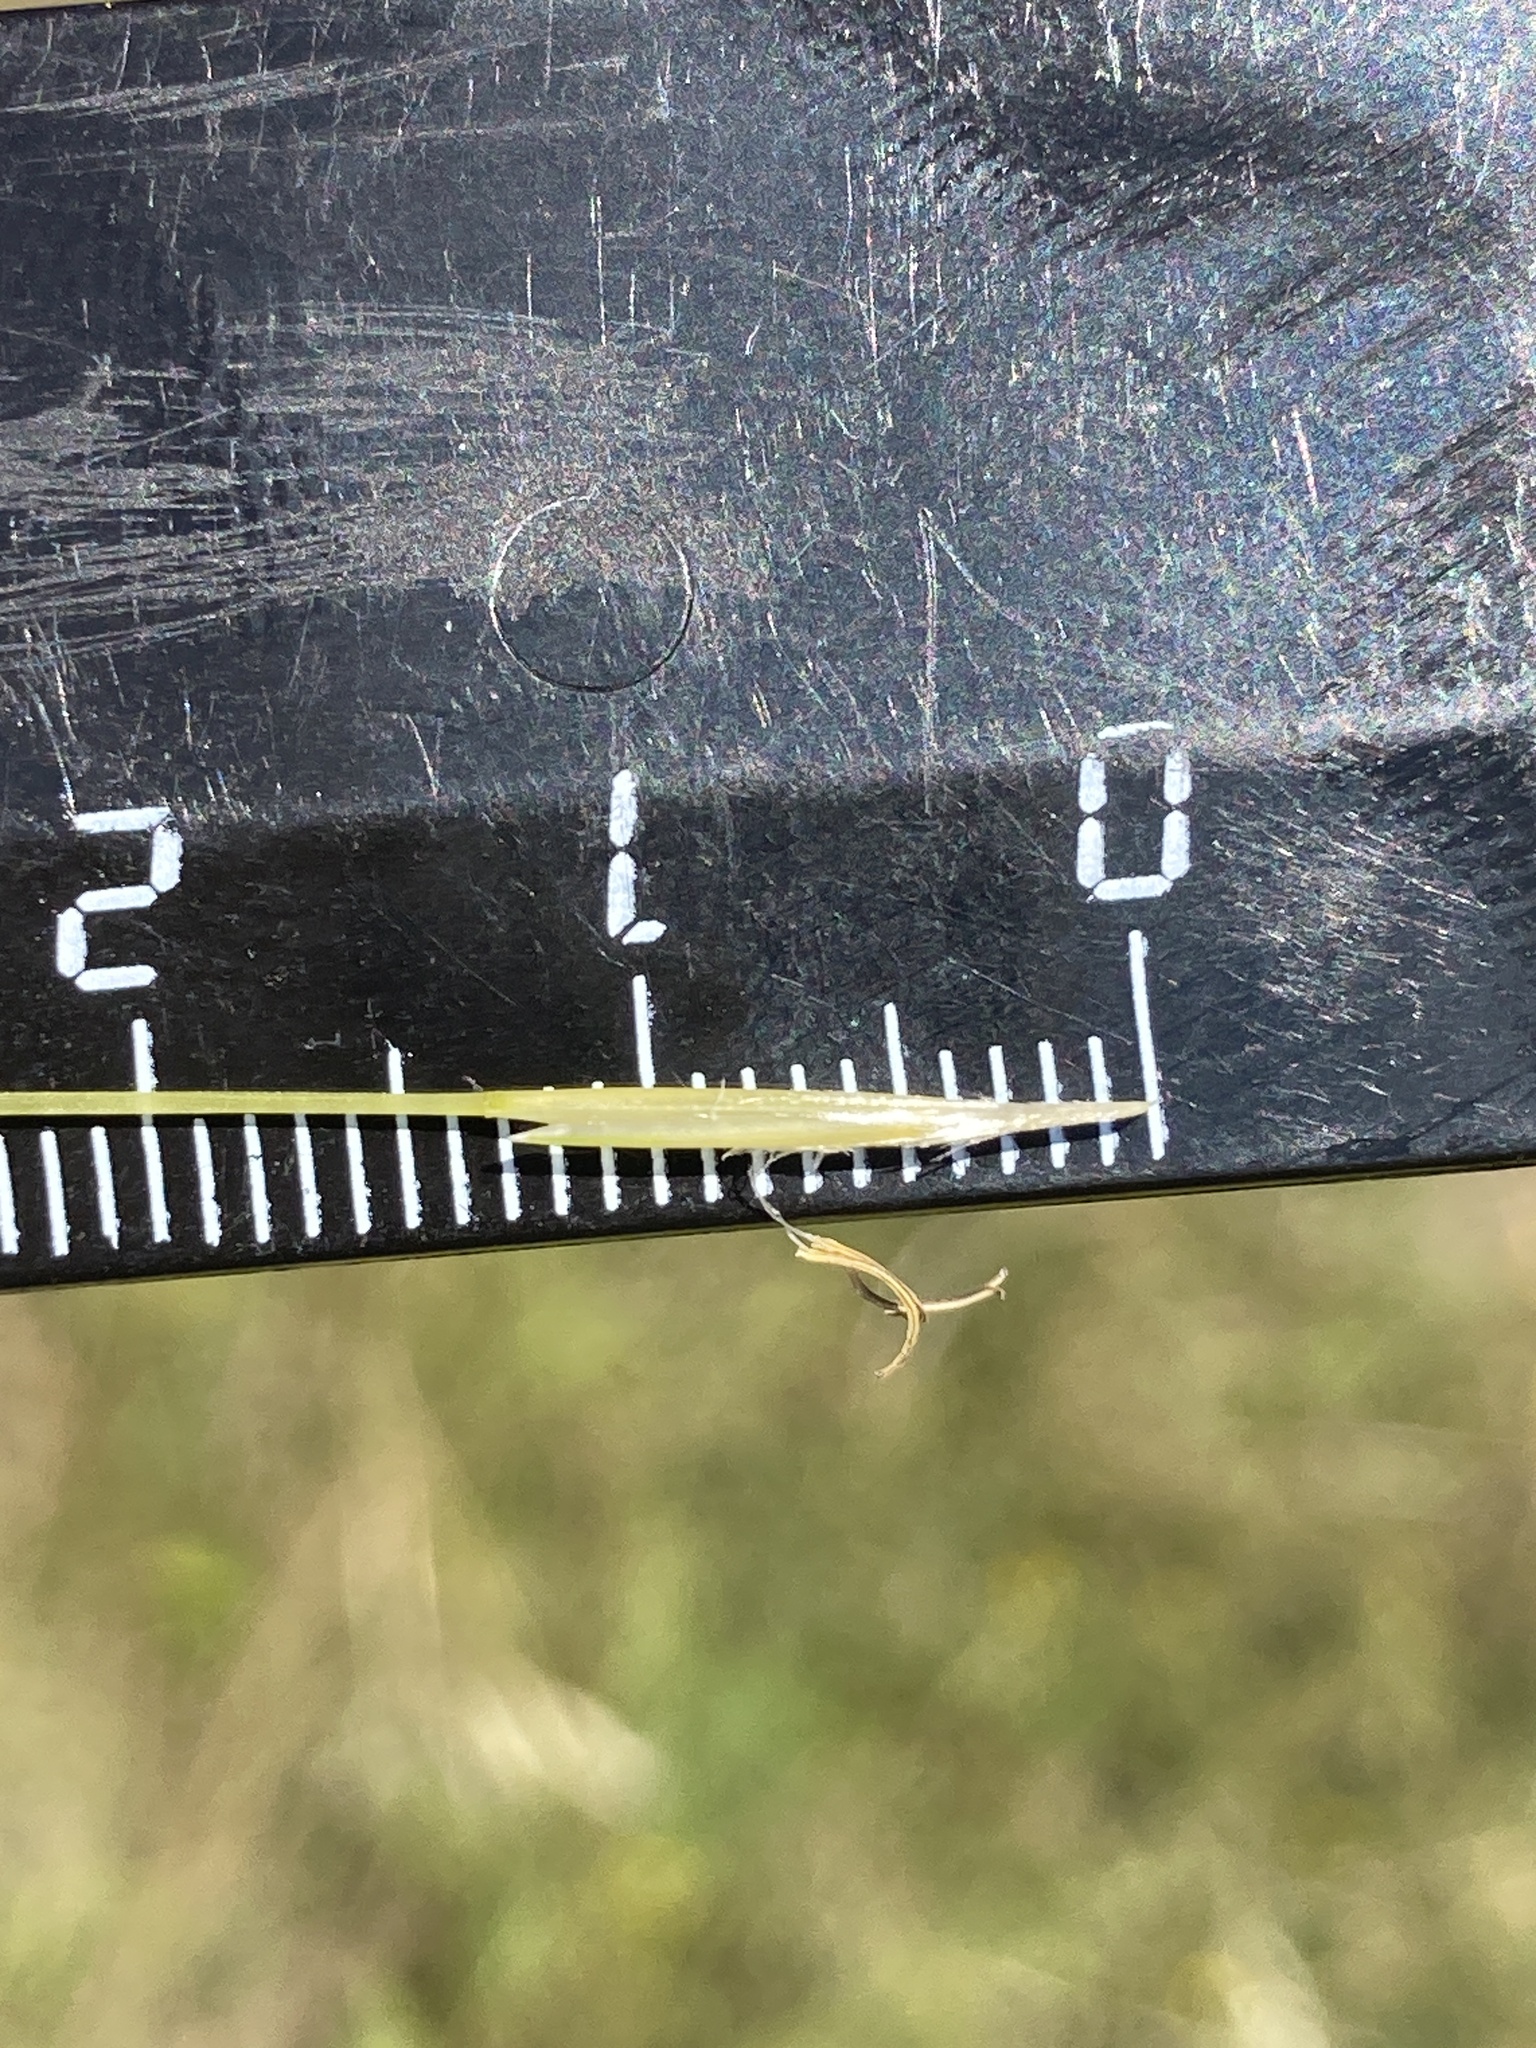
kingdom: Plantae
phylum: Tracheophyta
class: Liliopsida
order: Poales
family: Poaceae
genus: Stipa
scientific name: Stipa capillata
